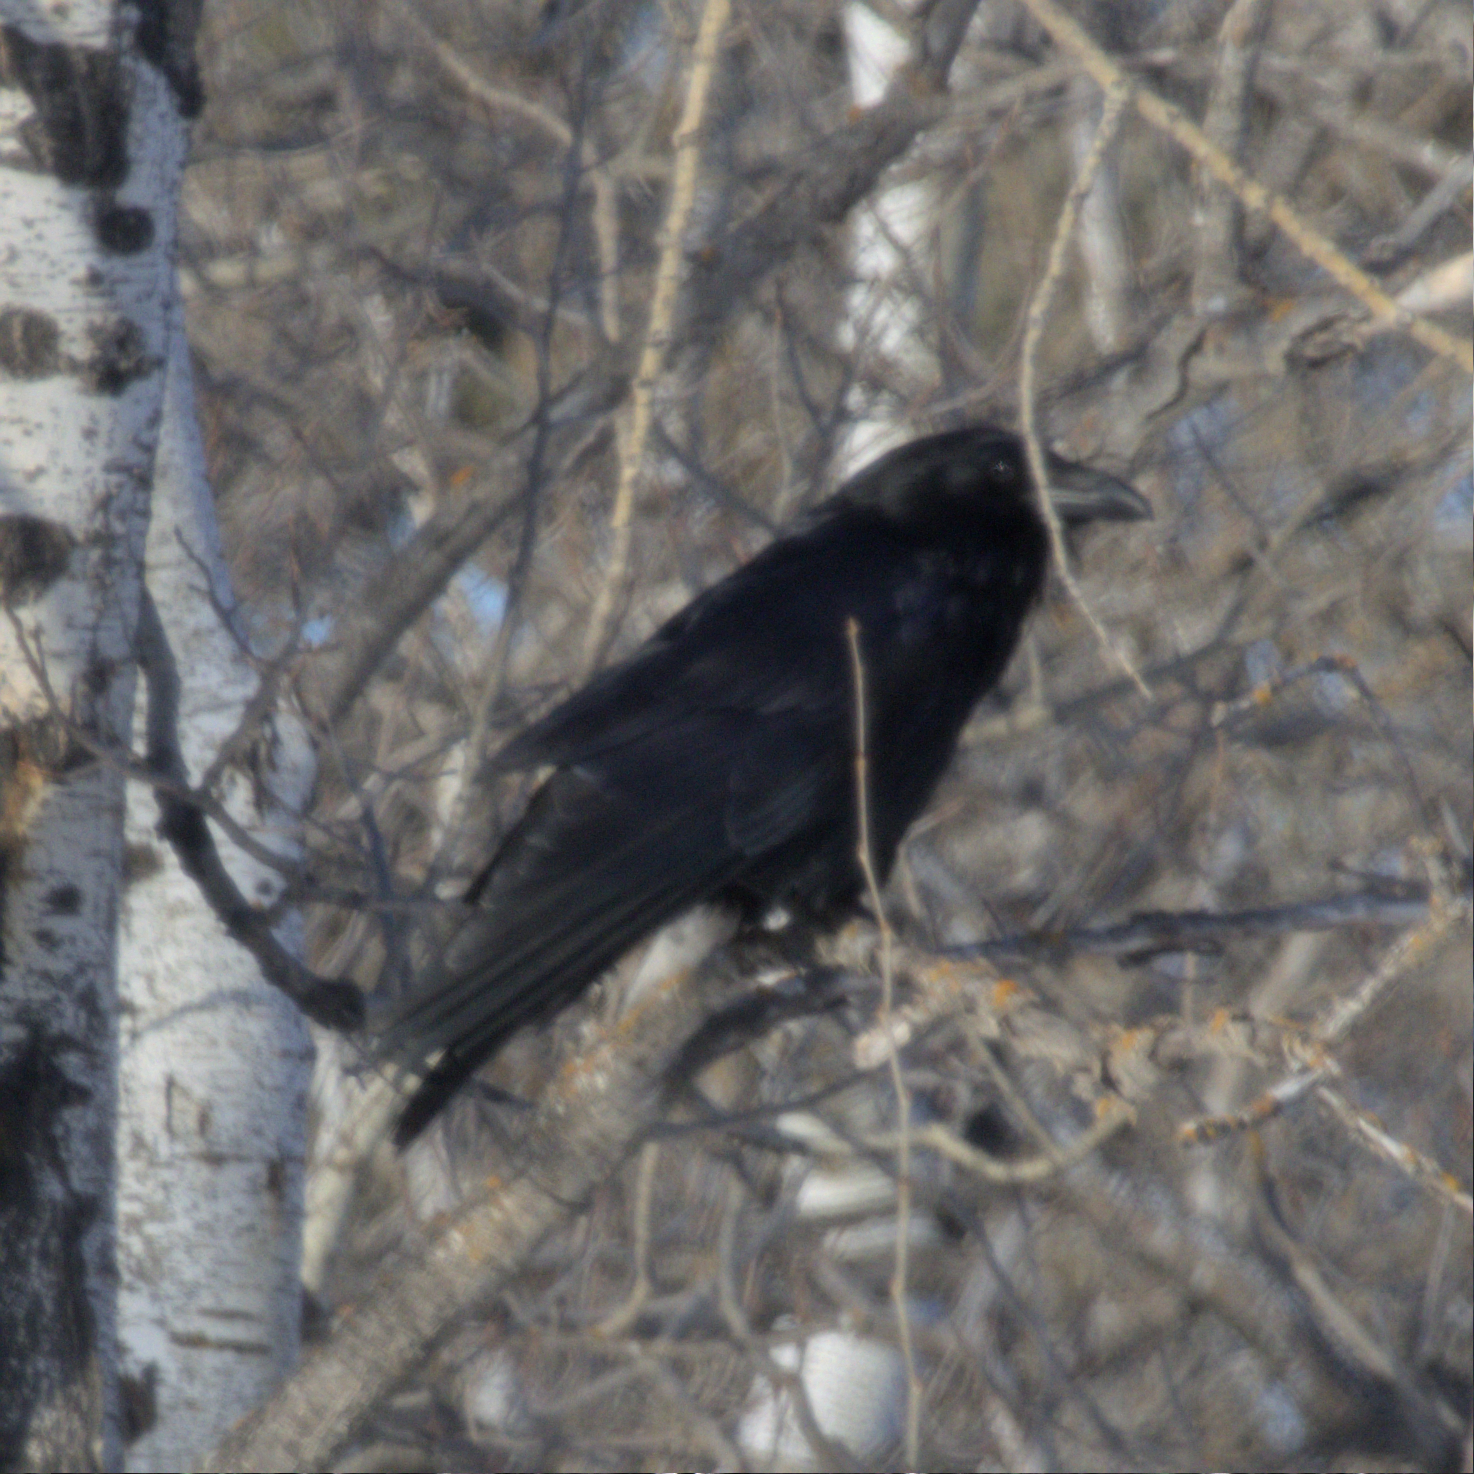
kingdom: Animalia
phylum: Chordata
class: Aves
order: Passeriformes
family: Corvidae
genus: Corvus
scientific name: Corvus corax
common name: Common raven
